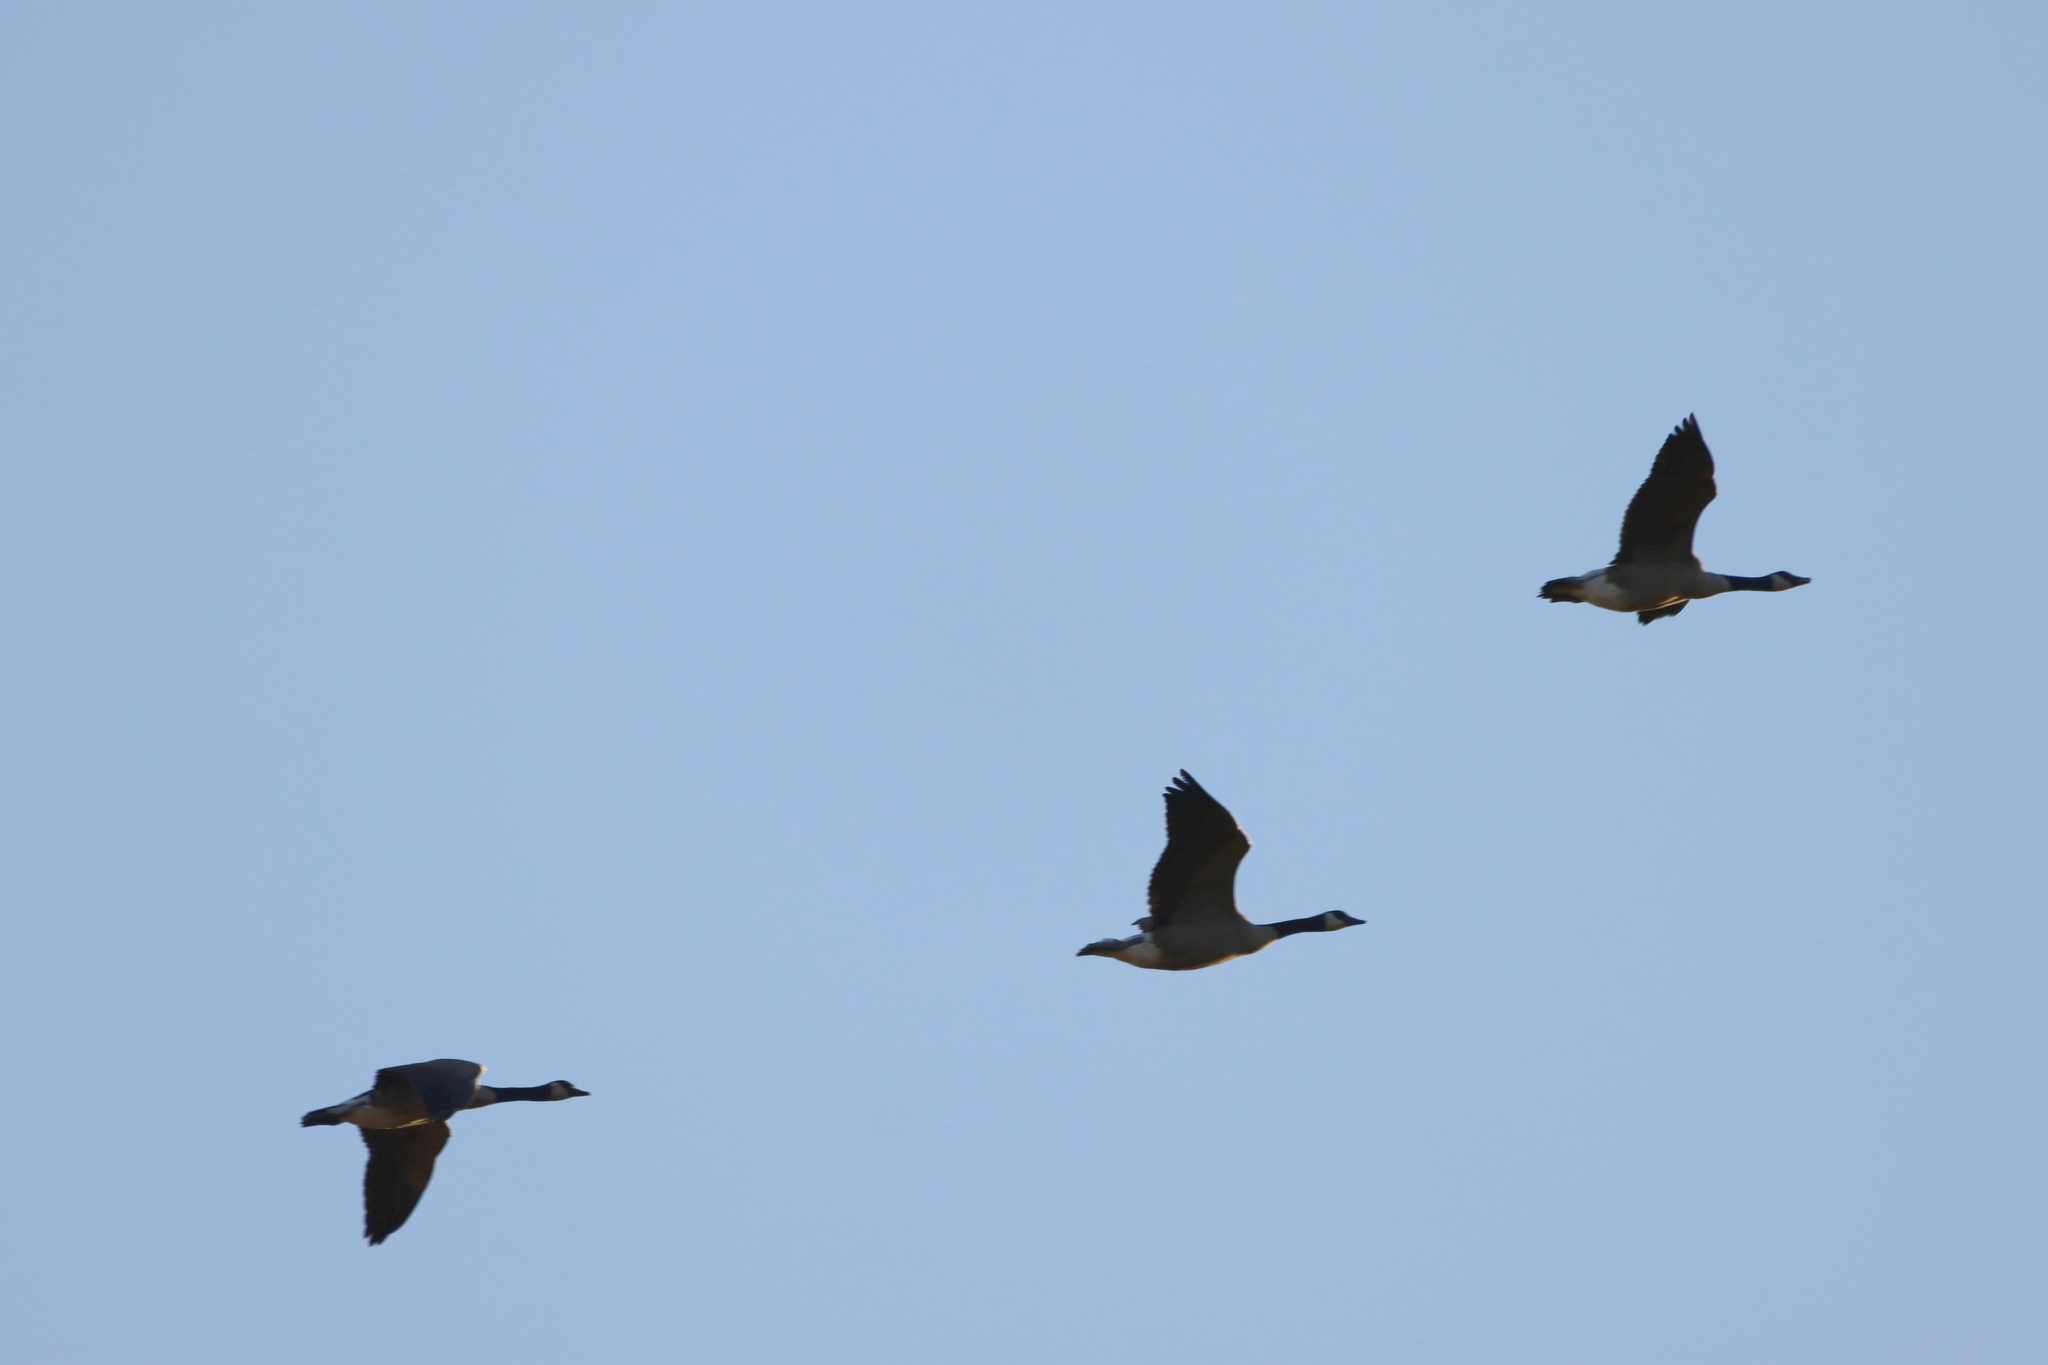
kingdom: Animalia
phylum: Chordata
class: Aves
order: Anseriformes
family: Anatidae
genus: Branta
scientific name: Branta canadensis
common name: Canada goose
